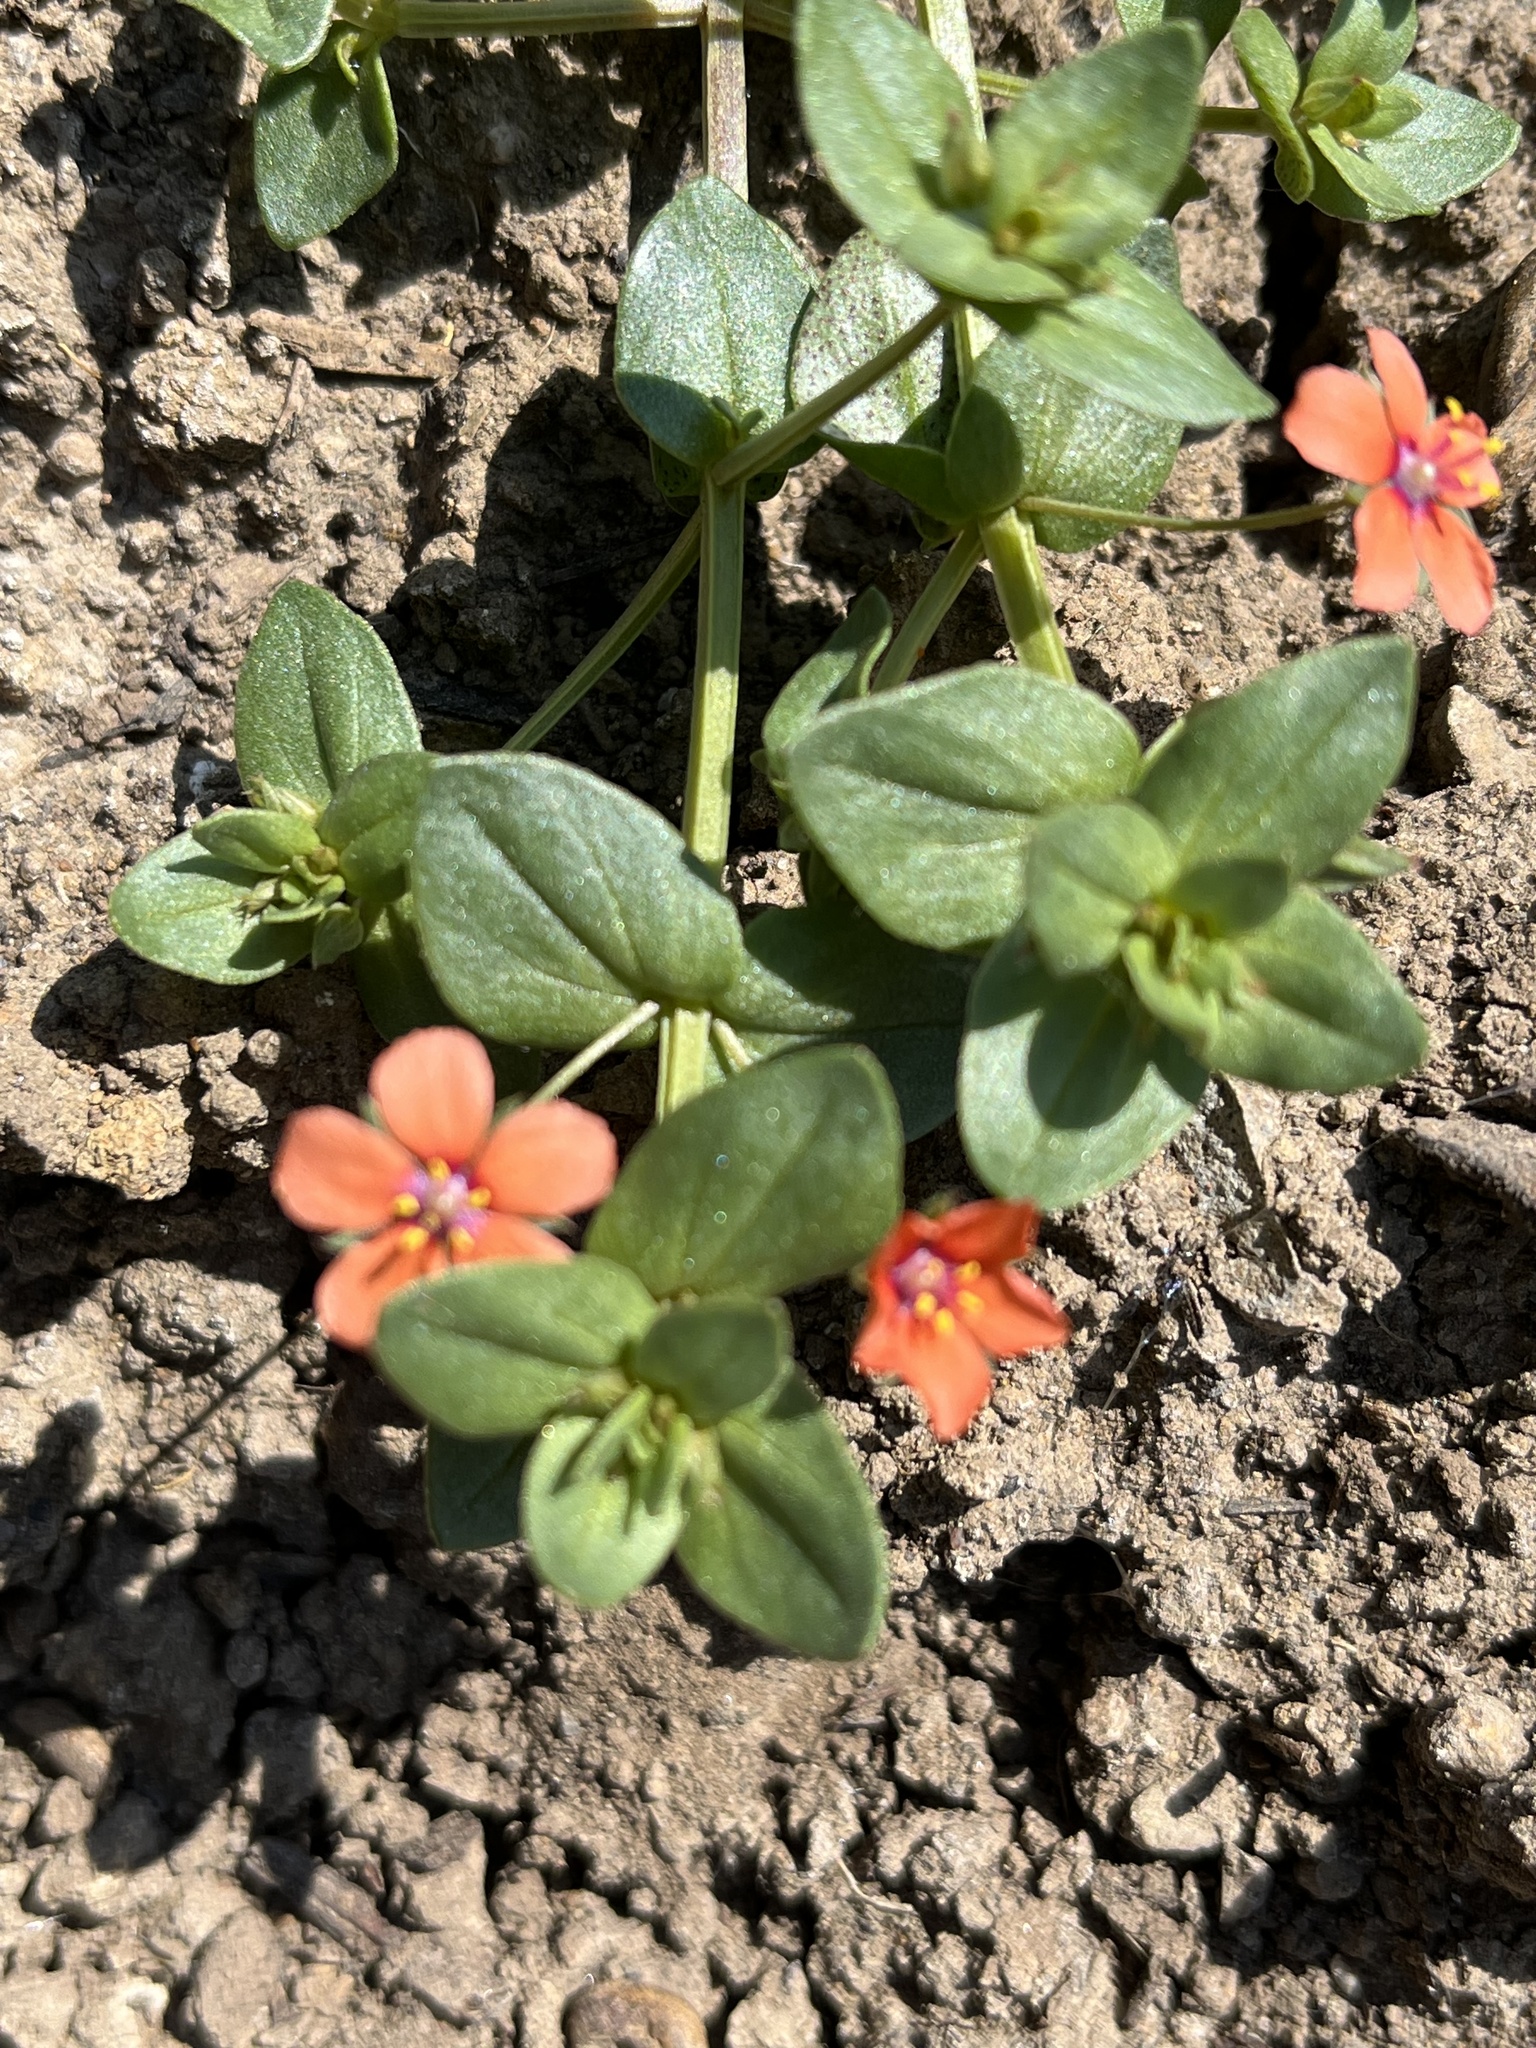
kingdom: Plantae
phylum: Tracheophyta
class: Magnoliopsida
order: Ericales
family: Primulaceae
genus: Lysimachia
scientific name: Lysimachia arvensis
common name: Scarlet pimpernel
